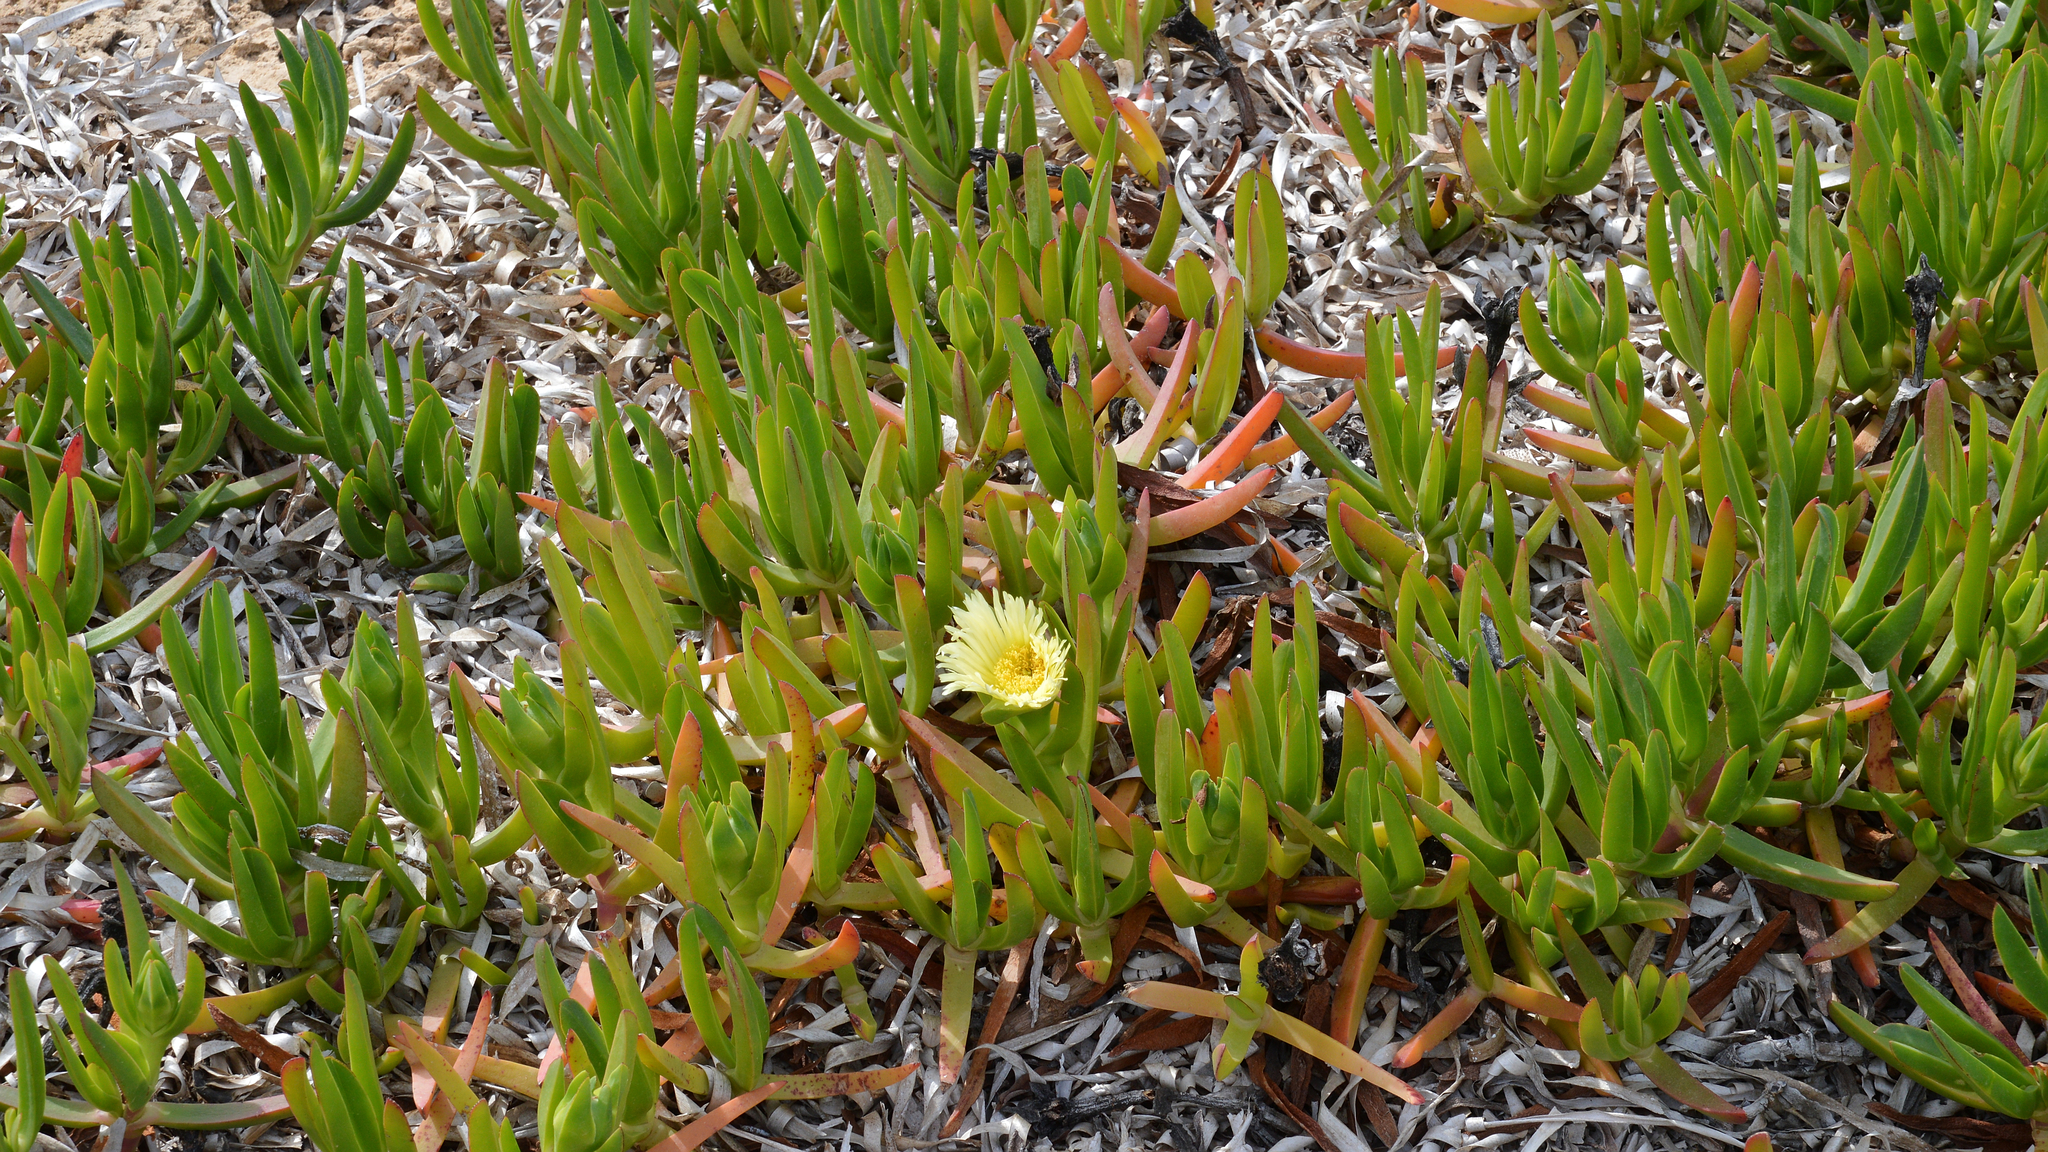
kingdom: Plantae
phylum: Tracheophyta
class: Magnoliopsida
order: Caryophyllales
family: Aizoaceae
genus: Carpobrotus
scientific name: Carpobrotus edulis
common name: Hottentot-fig
